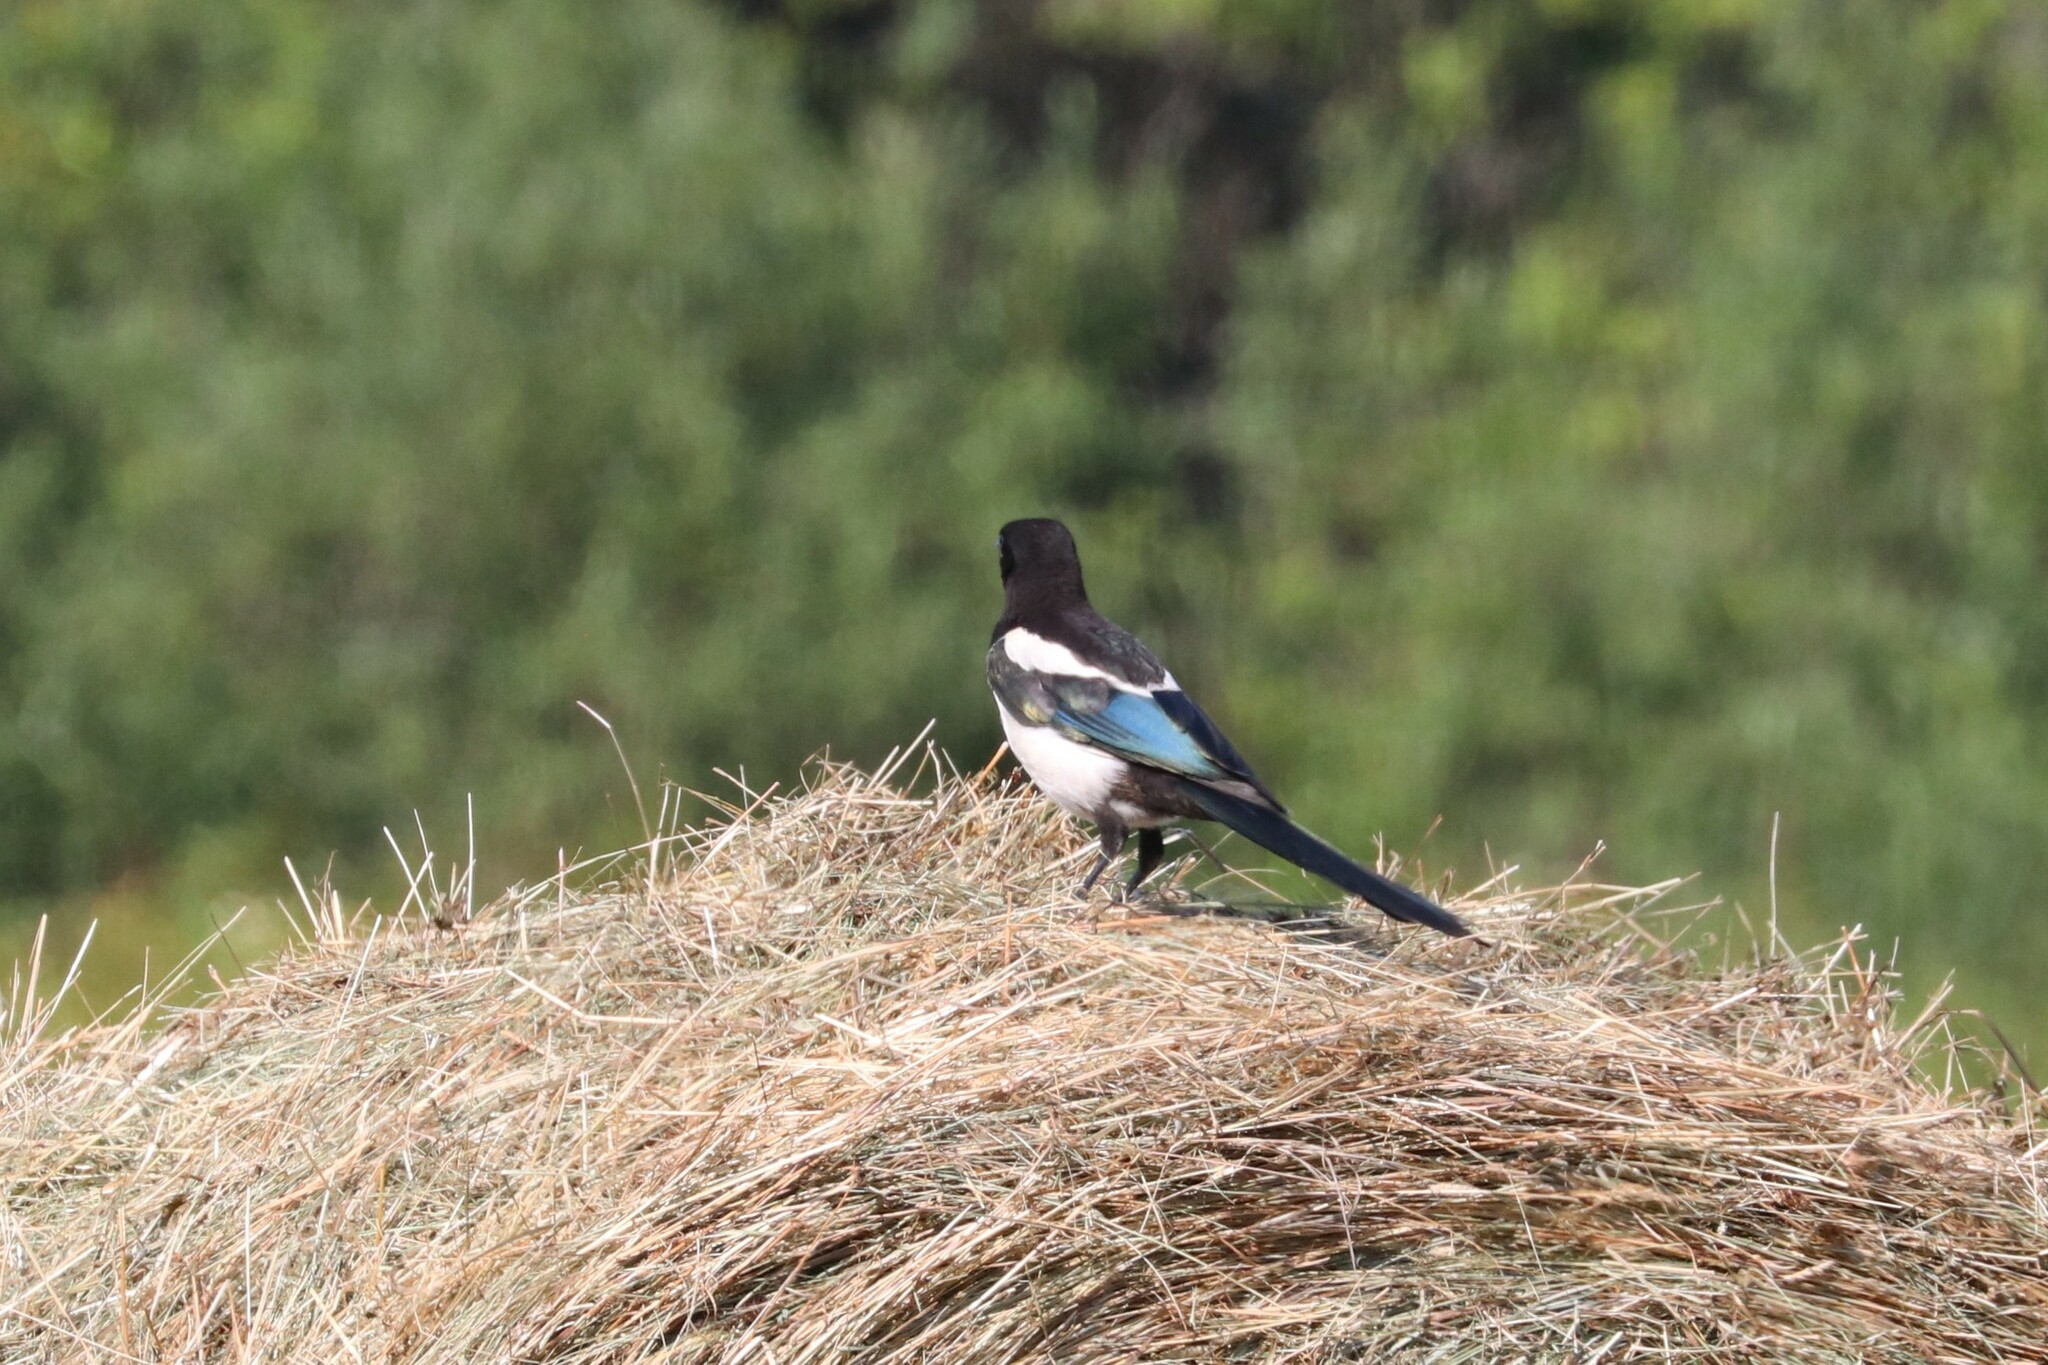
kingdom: Animalia
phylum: Chordata
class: Aves
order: Passeriformes
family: Corvidae
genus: Pica
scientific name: Pica pica
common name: Eurasian magpie
